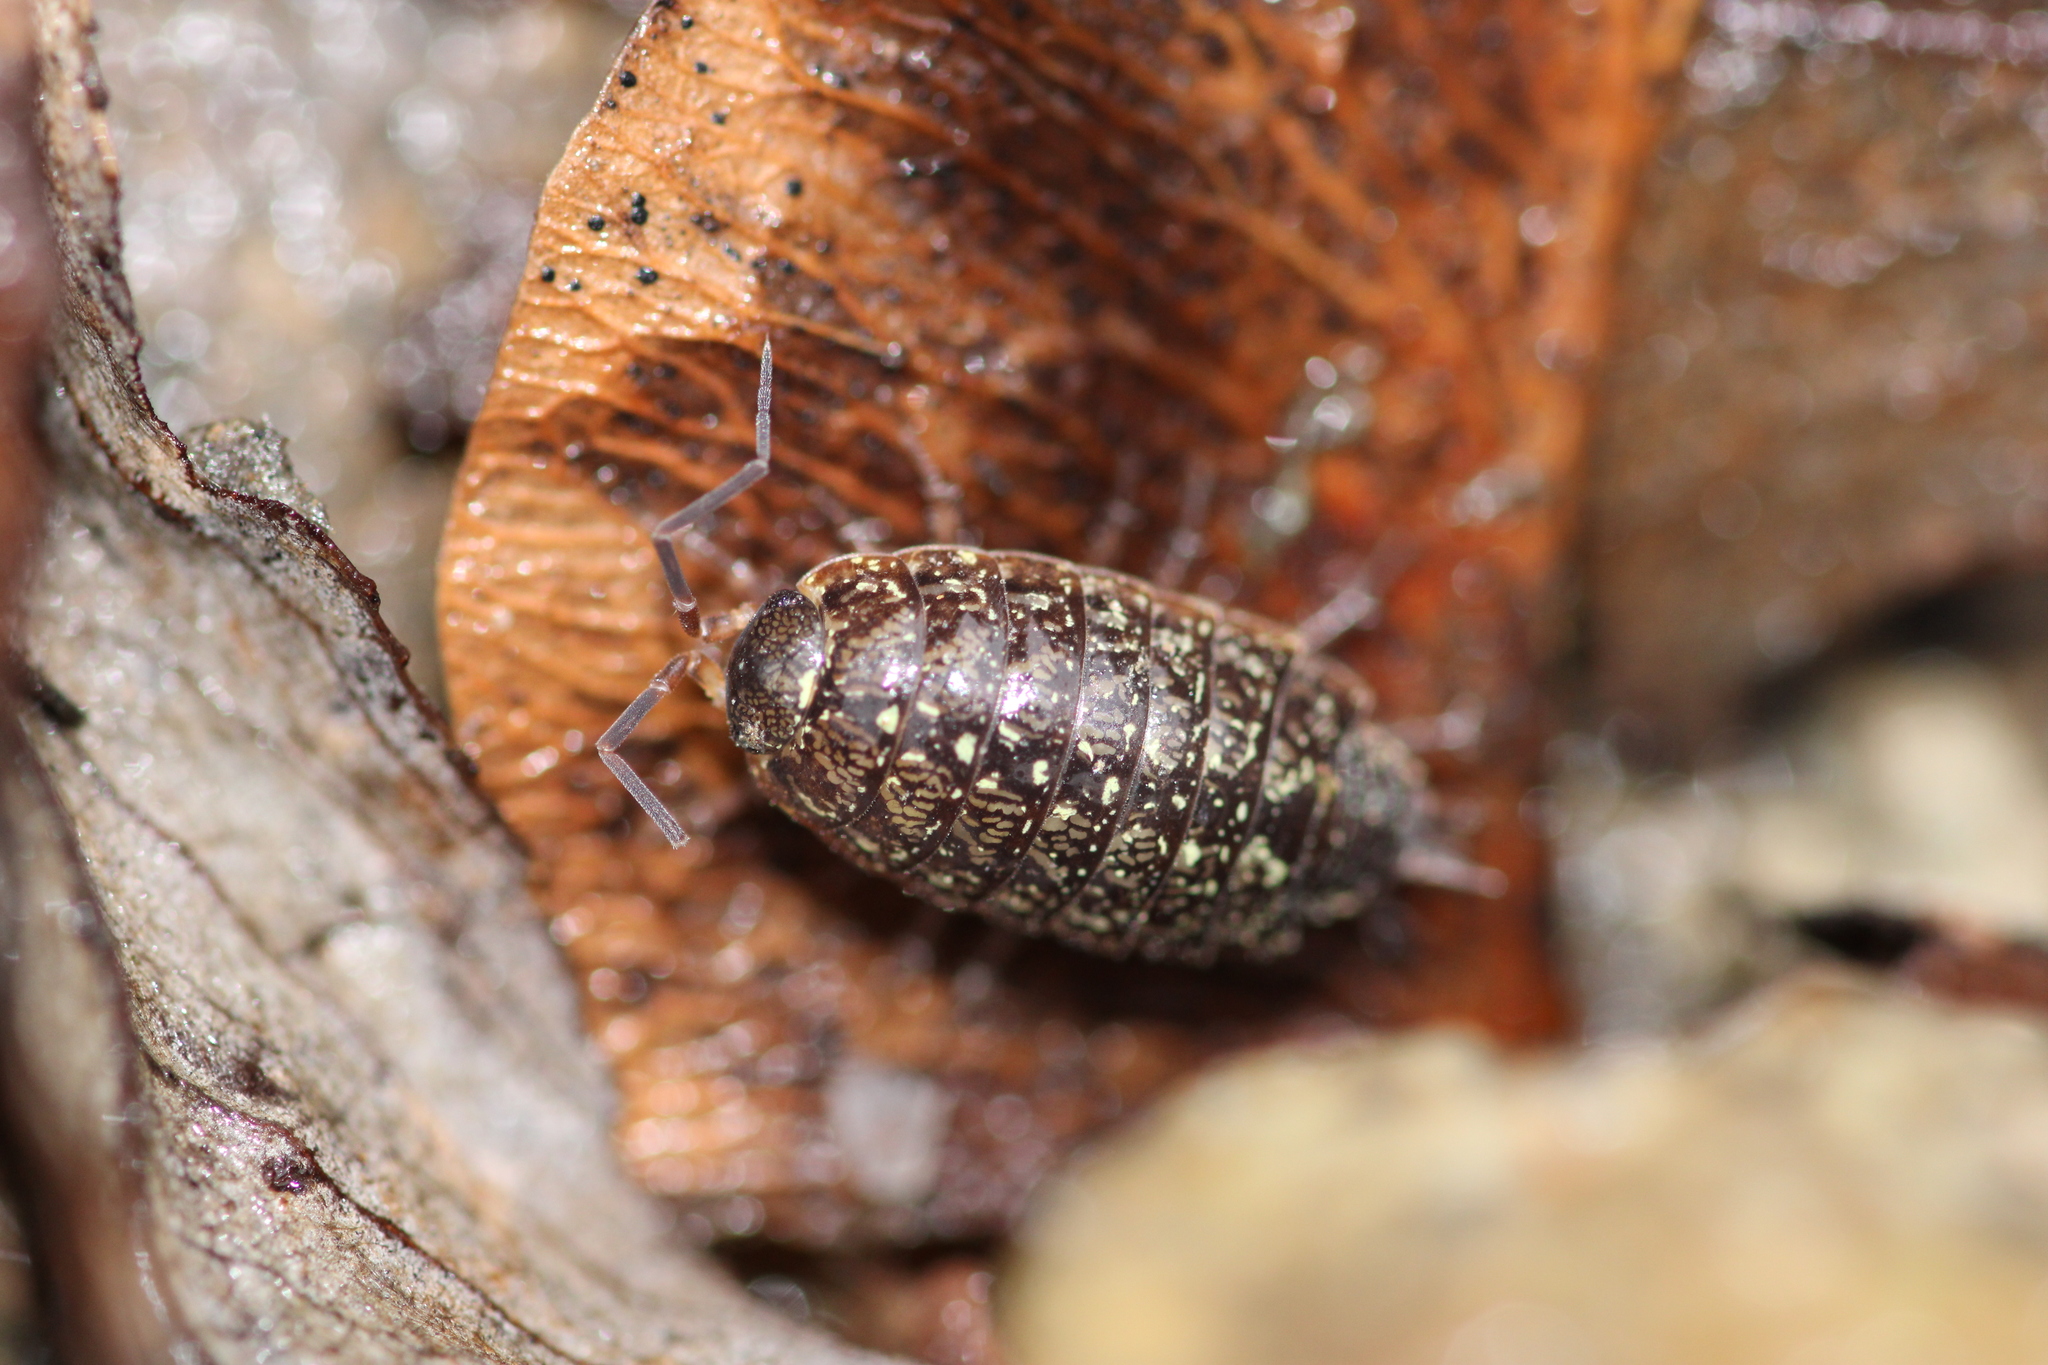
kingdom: Animalia
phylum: Arthropoda
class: Malacostraca
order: Isopoda
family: Philosciidae
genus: Philoscia
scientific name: Philoscia affinis
